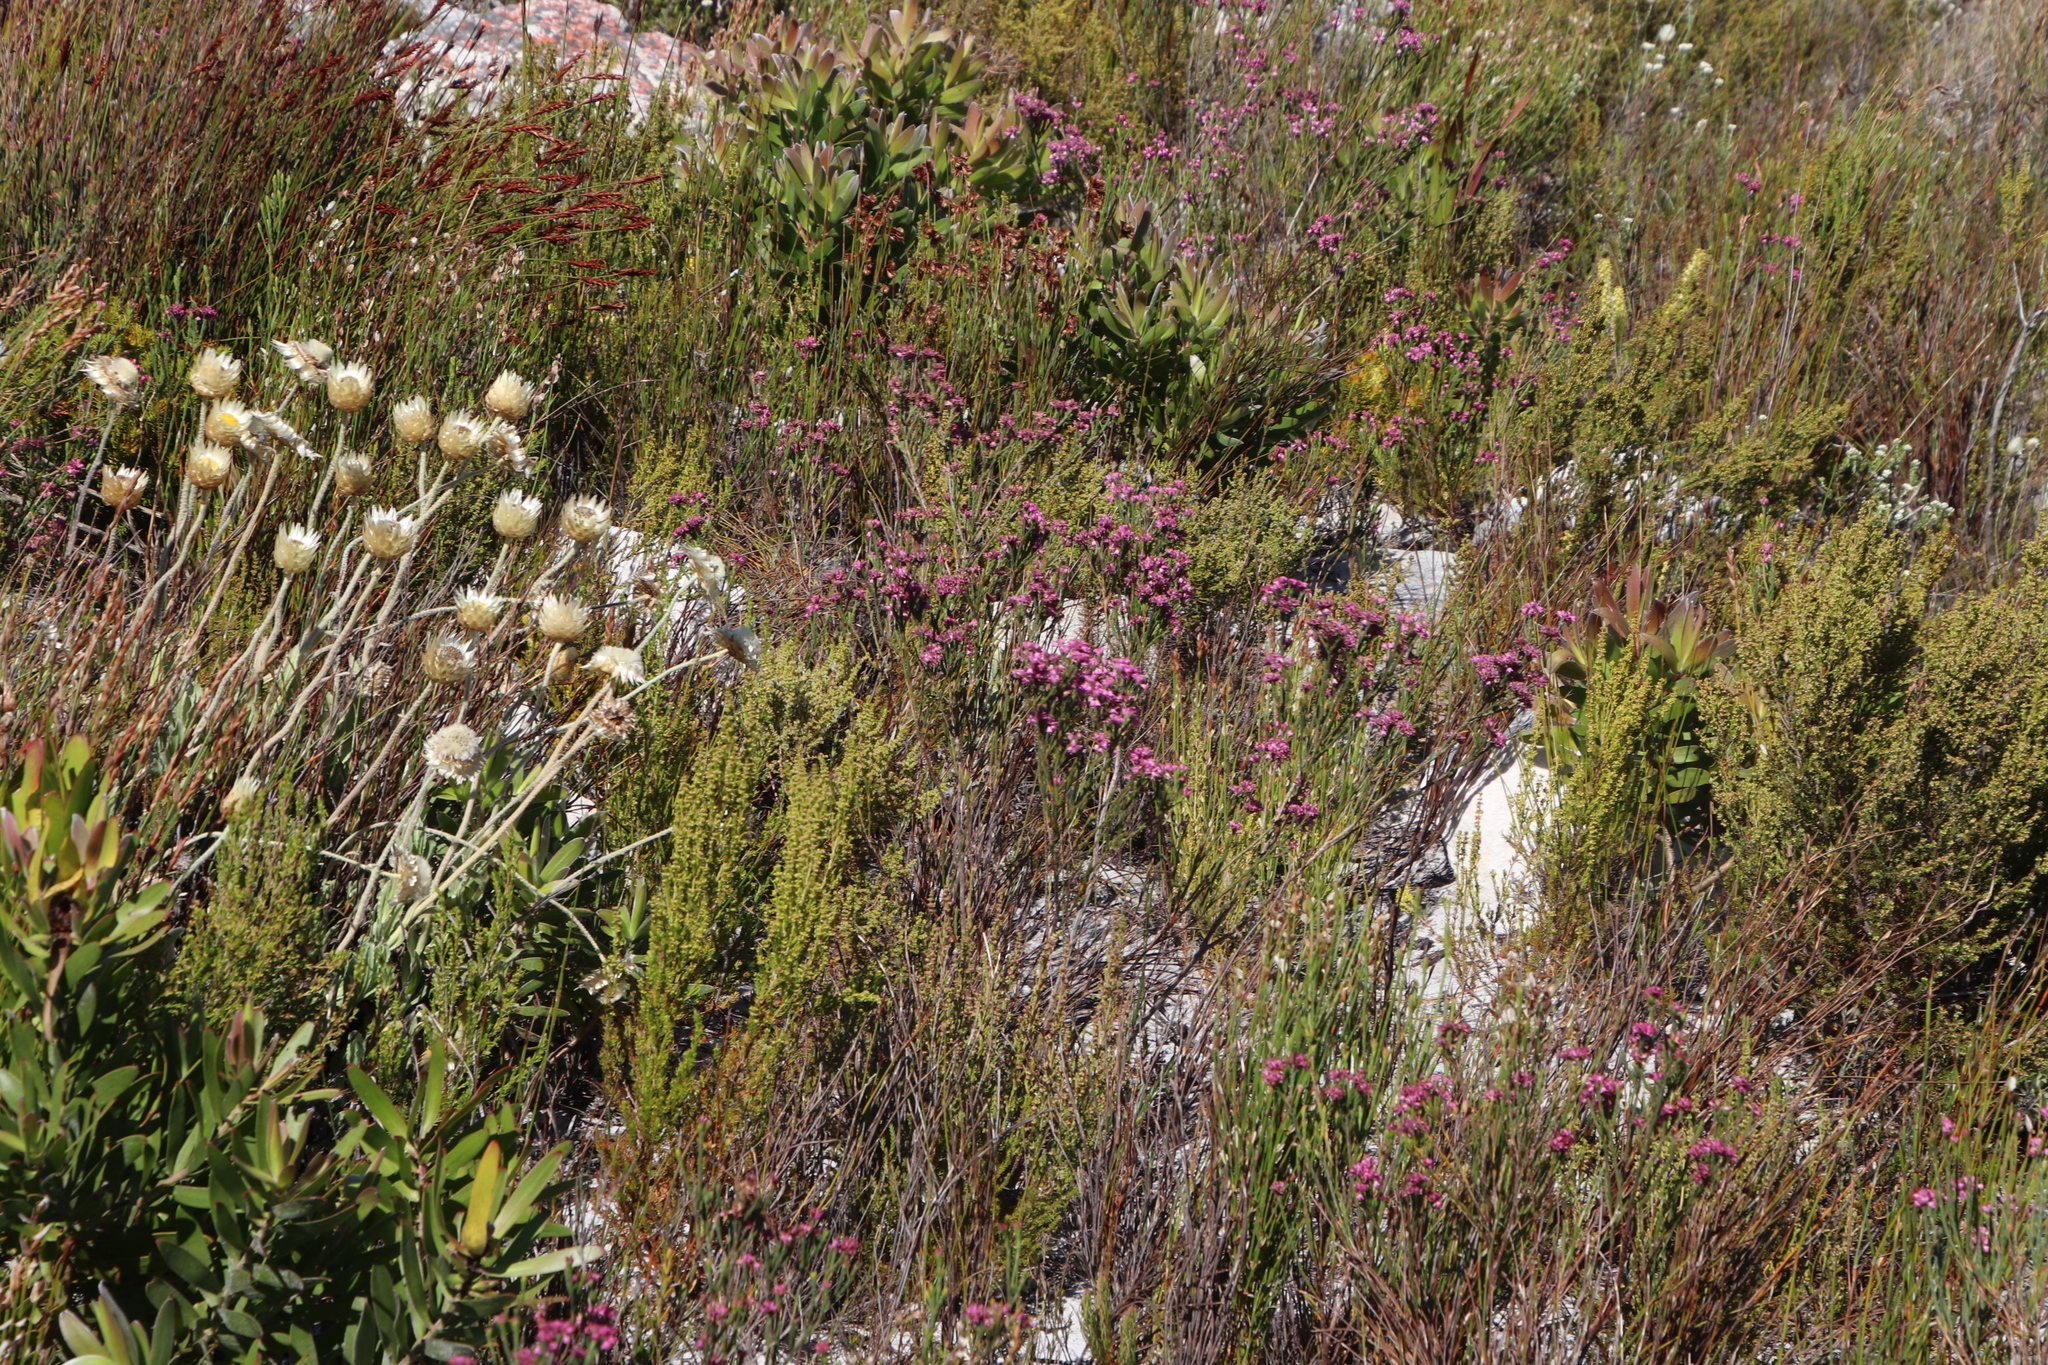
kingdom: Plantae
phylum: Tracheophyta
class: Magnoliopsida
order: Ericales
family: Ericaceae
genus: Erica
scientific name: Erica corifolia
